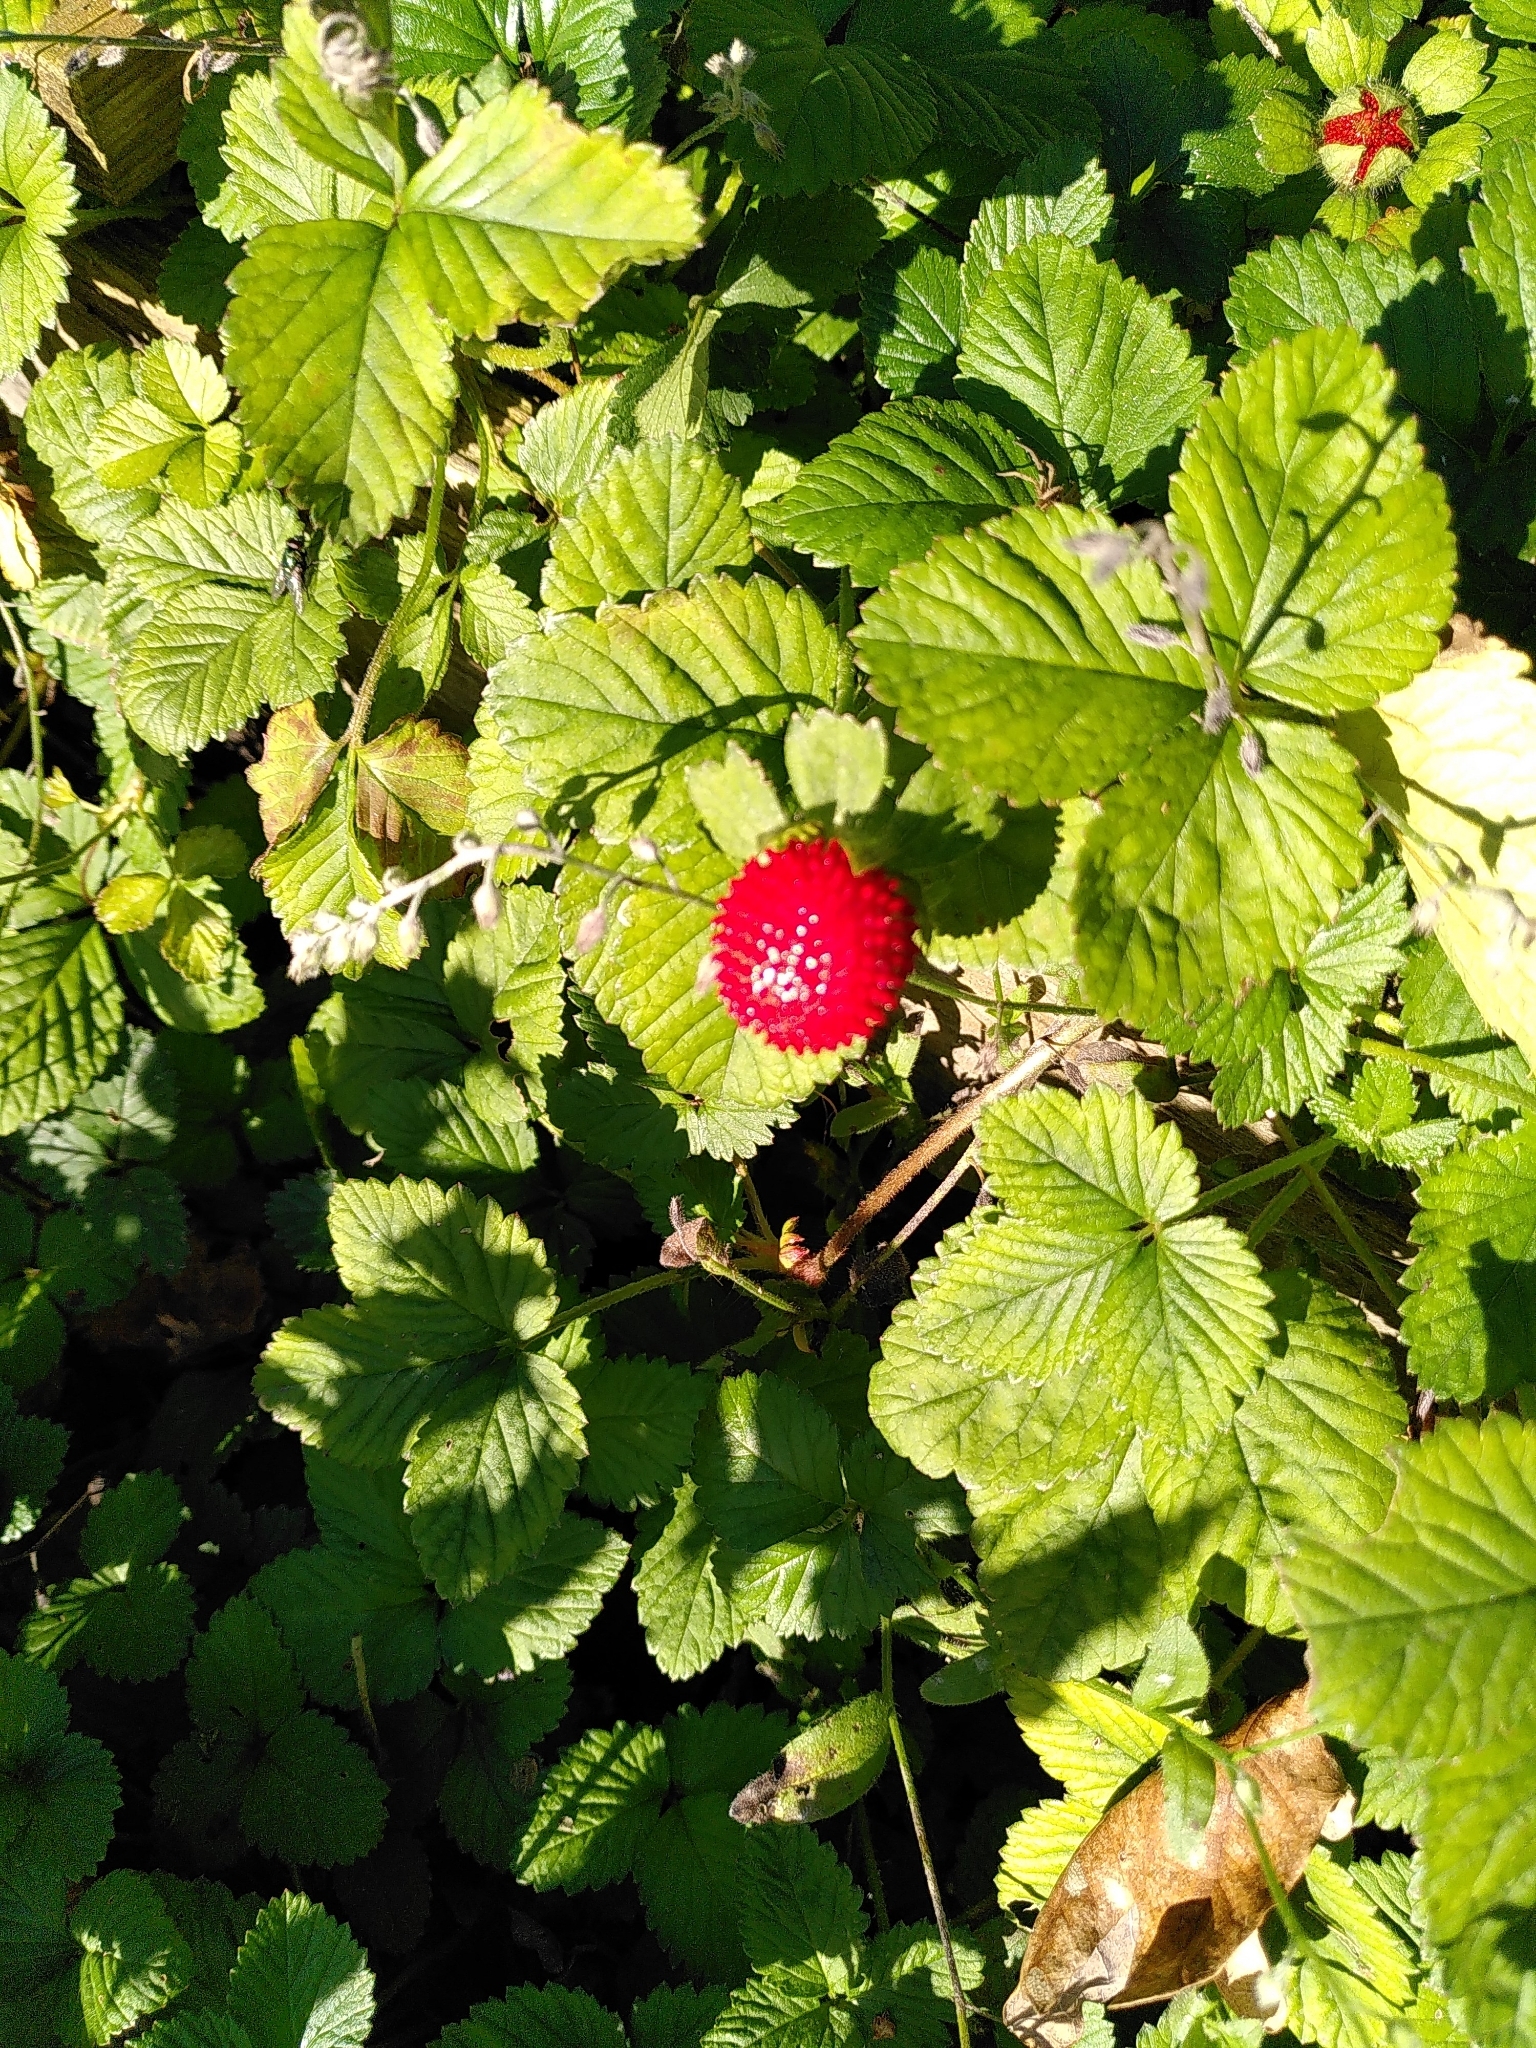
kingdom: Plantae
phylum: Tracheophyta
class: Magnoliopsida
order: Rosales
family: Rosaceae
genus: Potentilla
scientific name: Potentilla indica
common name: Yellow-flowered strawberry
